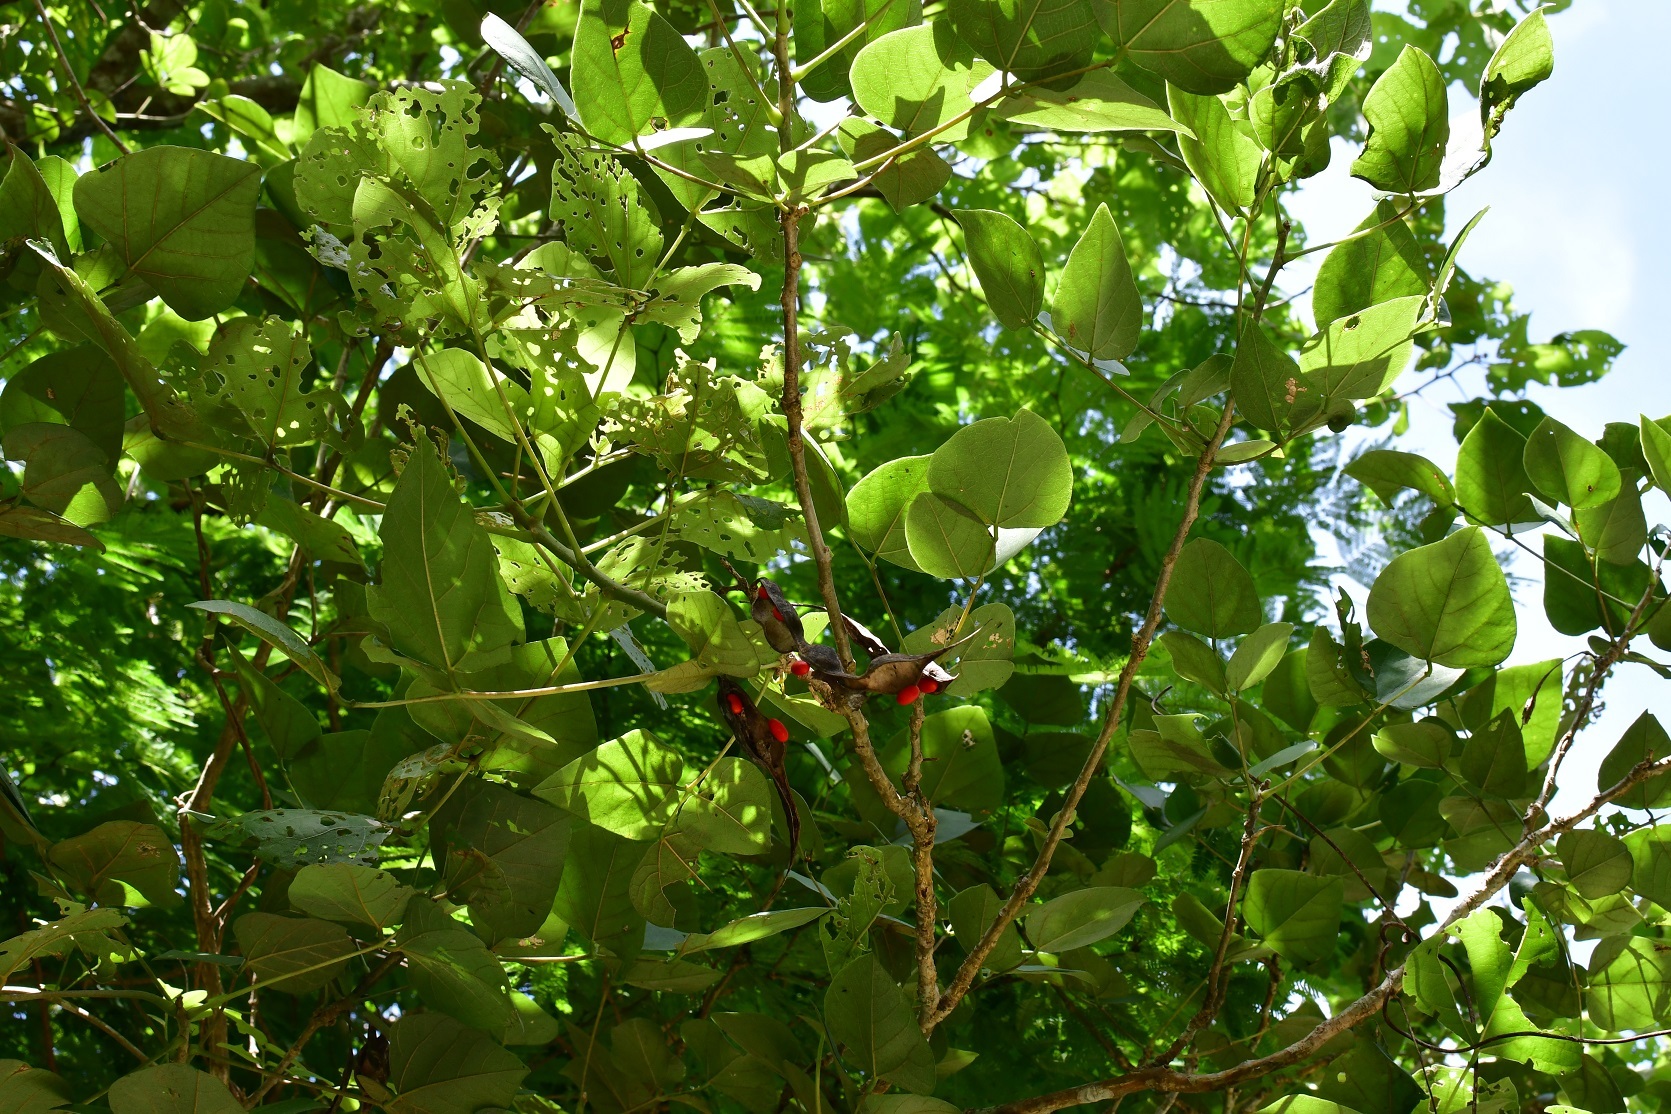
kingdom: Plantae
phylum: Tracheophyta
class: Magnoliopsida
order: Fabales
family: Fabaceae
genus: Erythrina
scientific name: Erythrina goldmanii
